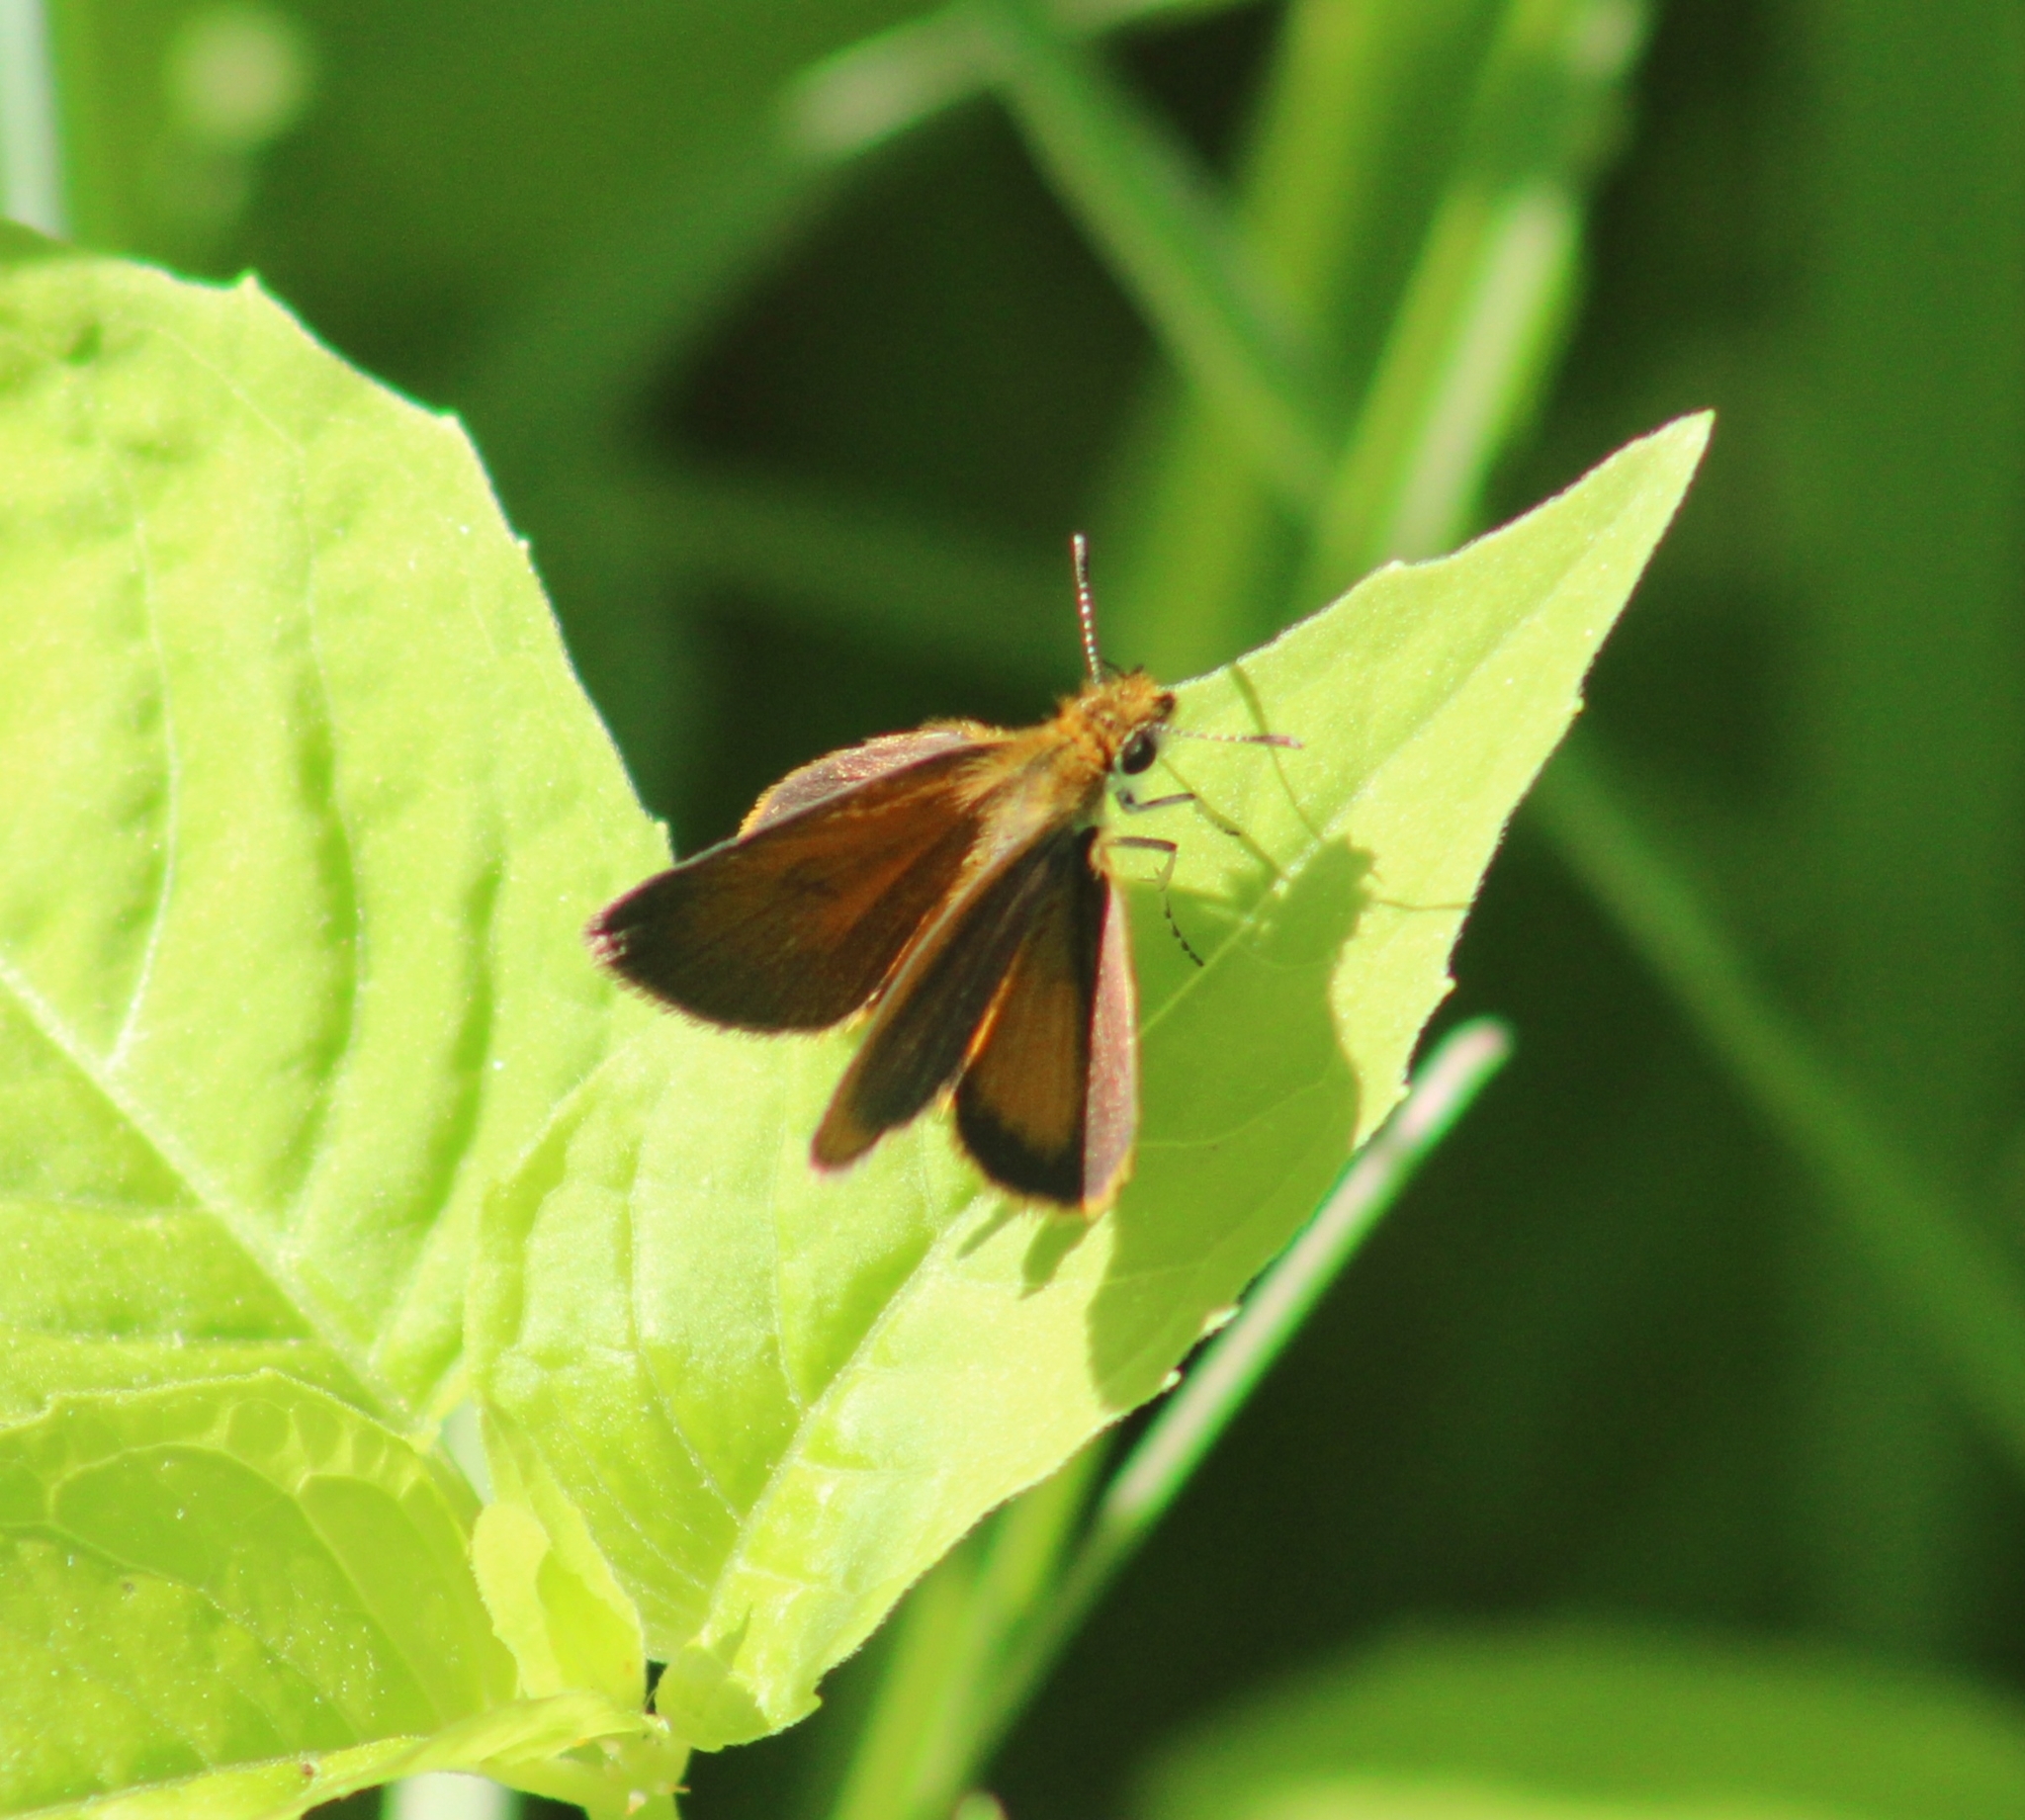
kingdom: Animalia
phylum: Arthropoda
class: Insecta
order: Lepidoptera
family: Hesperiidae
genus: Ancyloxypha
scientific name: Ancyloxypha numitor
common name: Least skipper
